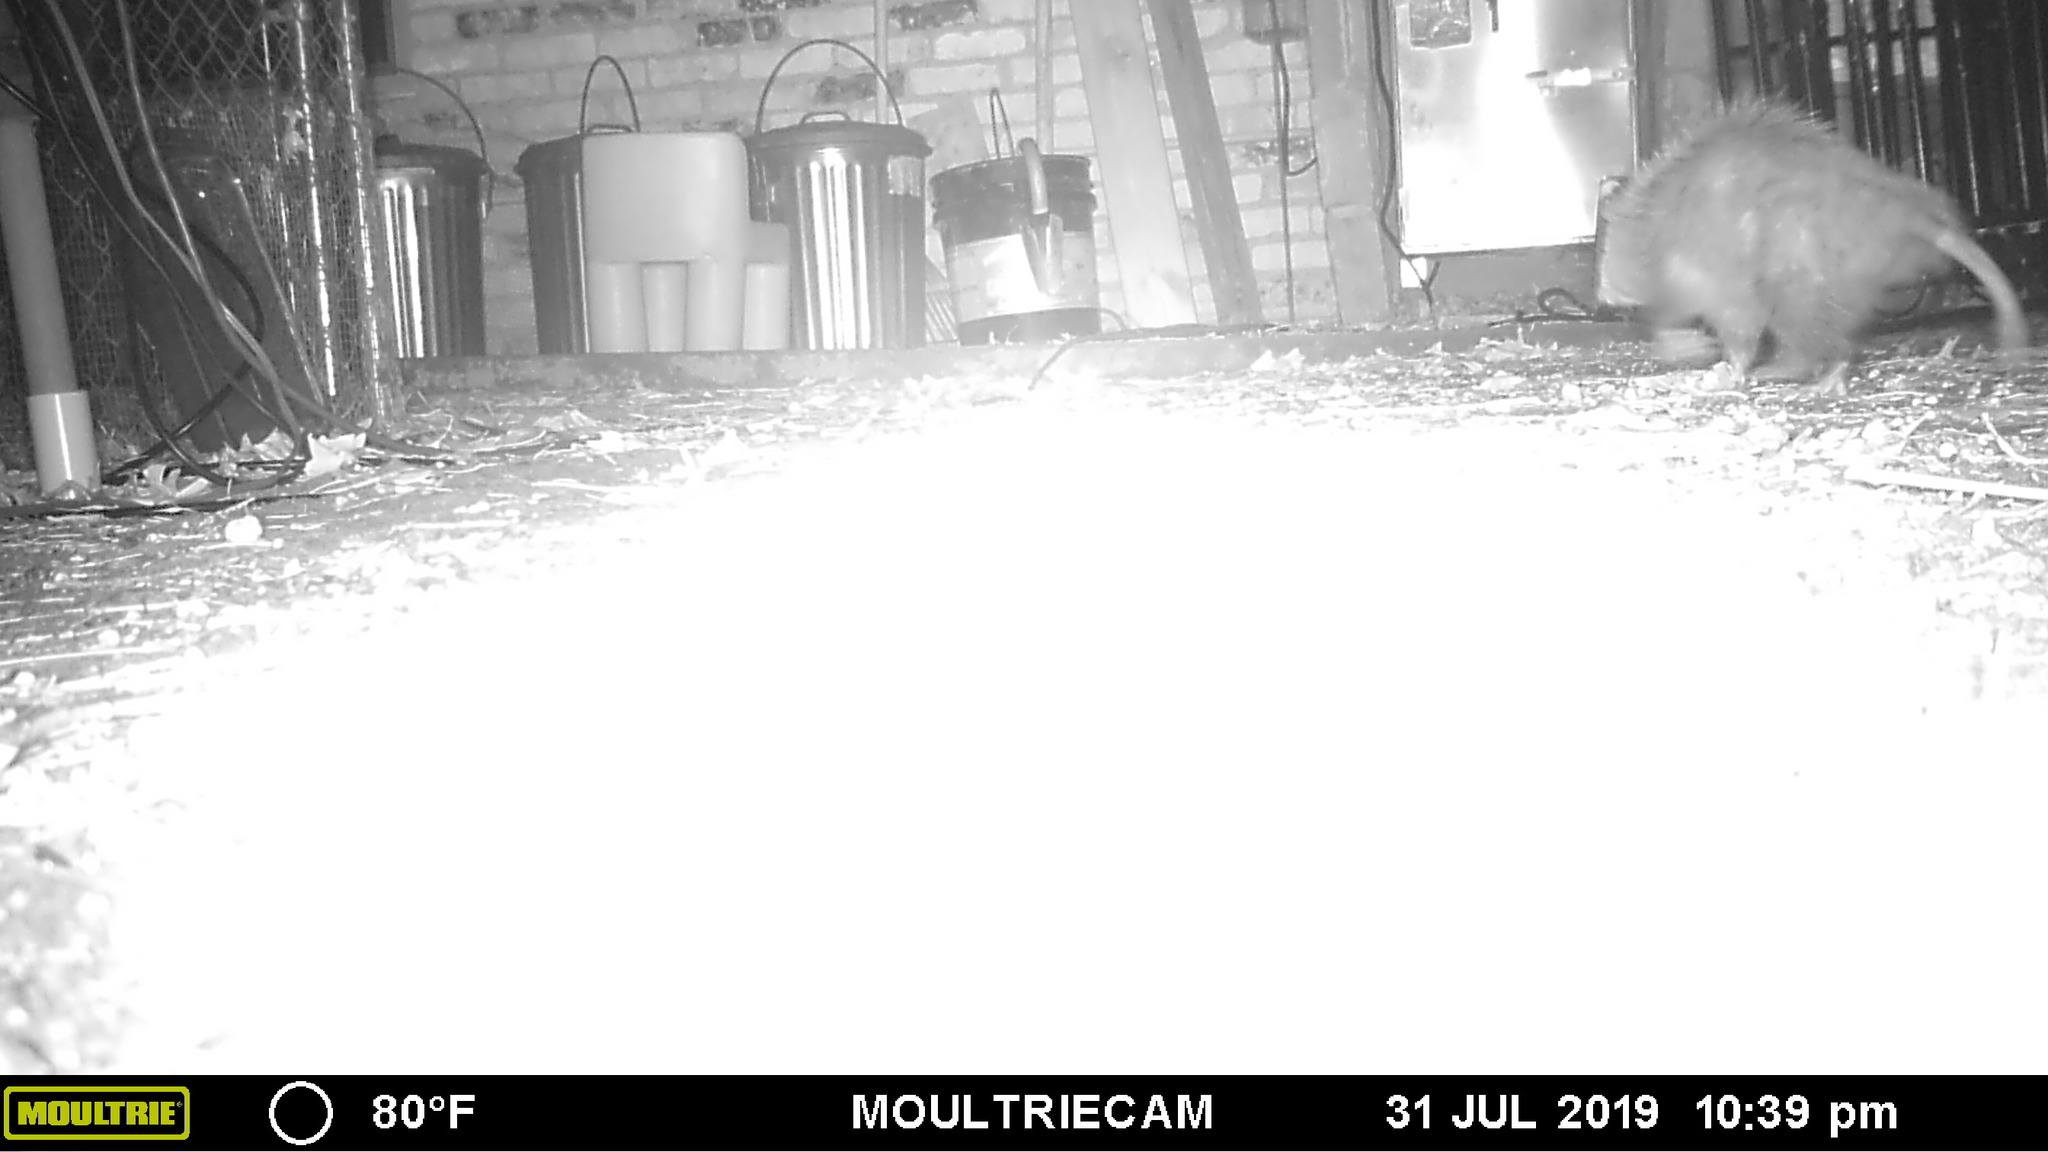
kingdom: Animalia
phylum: Chordata
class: Mammalia
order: Didelphimorphia
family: Didelphidae
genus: Didelphis
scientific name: Didelphis virginiana
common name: Virginia opossum
